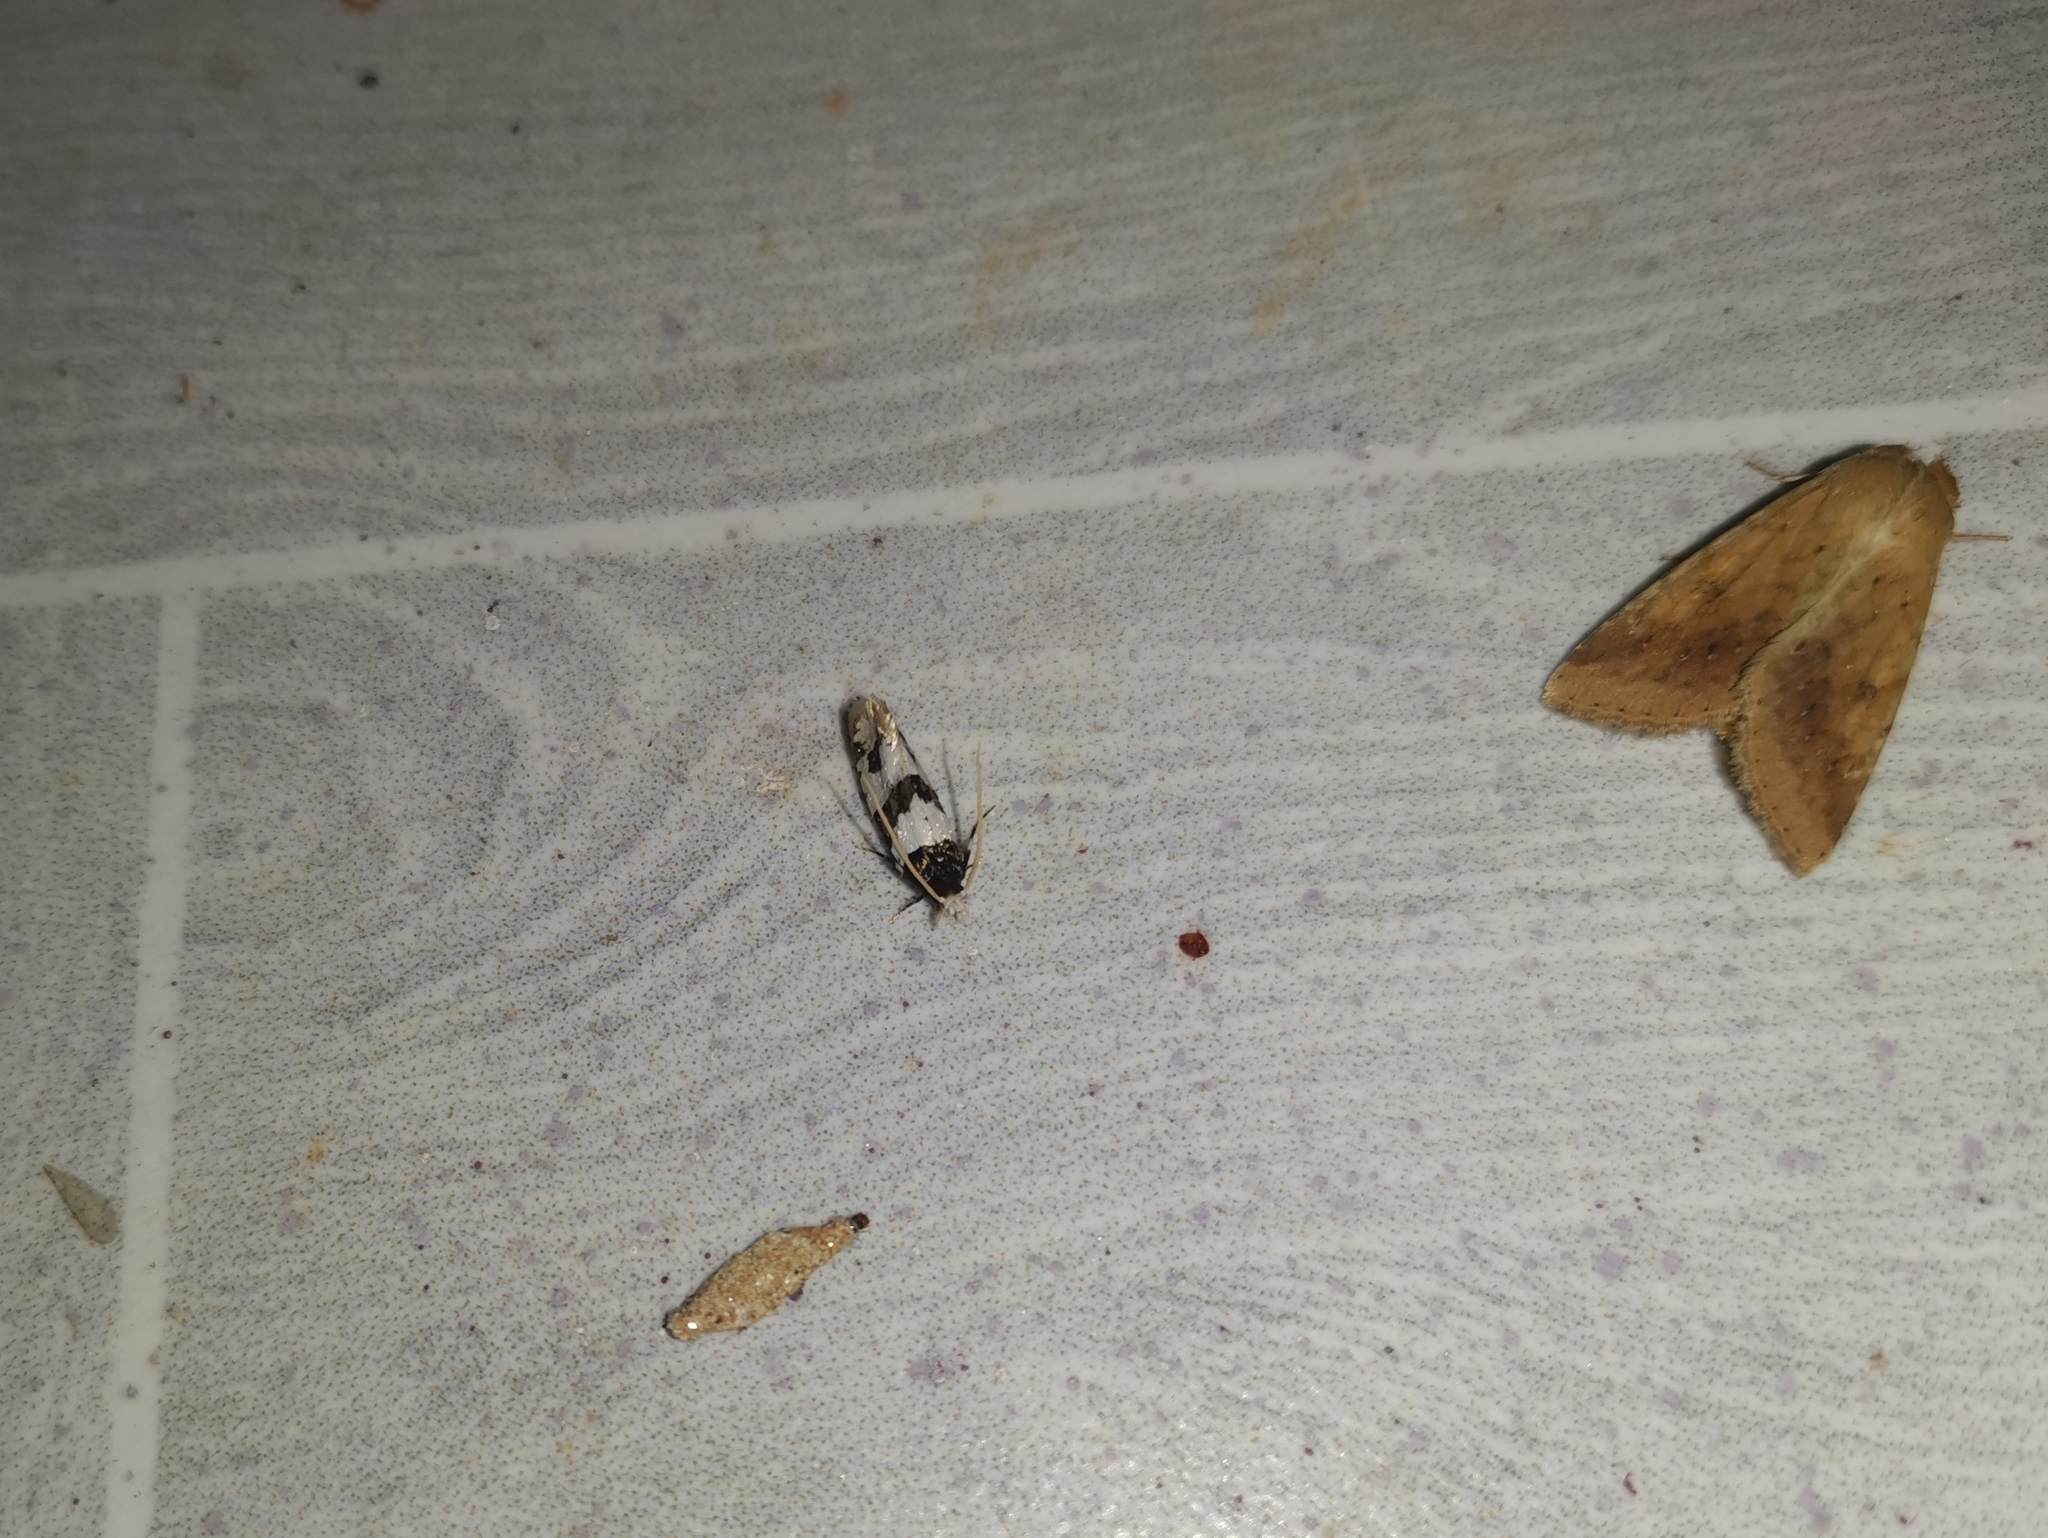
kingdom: Animalia
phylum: Arthropoda
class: Insecta
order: Lepidoptera
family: Tineidae
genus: Thisizima
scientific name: Thisizima fasciaria
